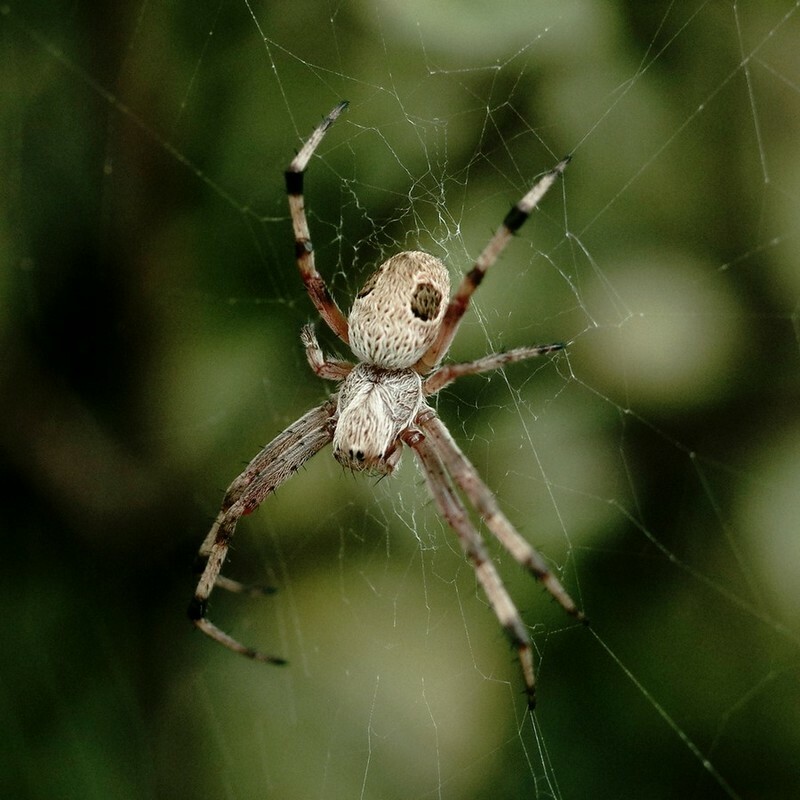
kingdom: Animalia
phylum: Arthropoda
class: Arachnida
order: Araneae
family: Araneidae
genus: Salsa
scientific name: Salsa fuliginata
